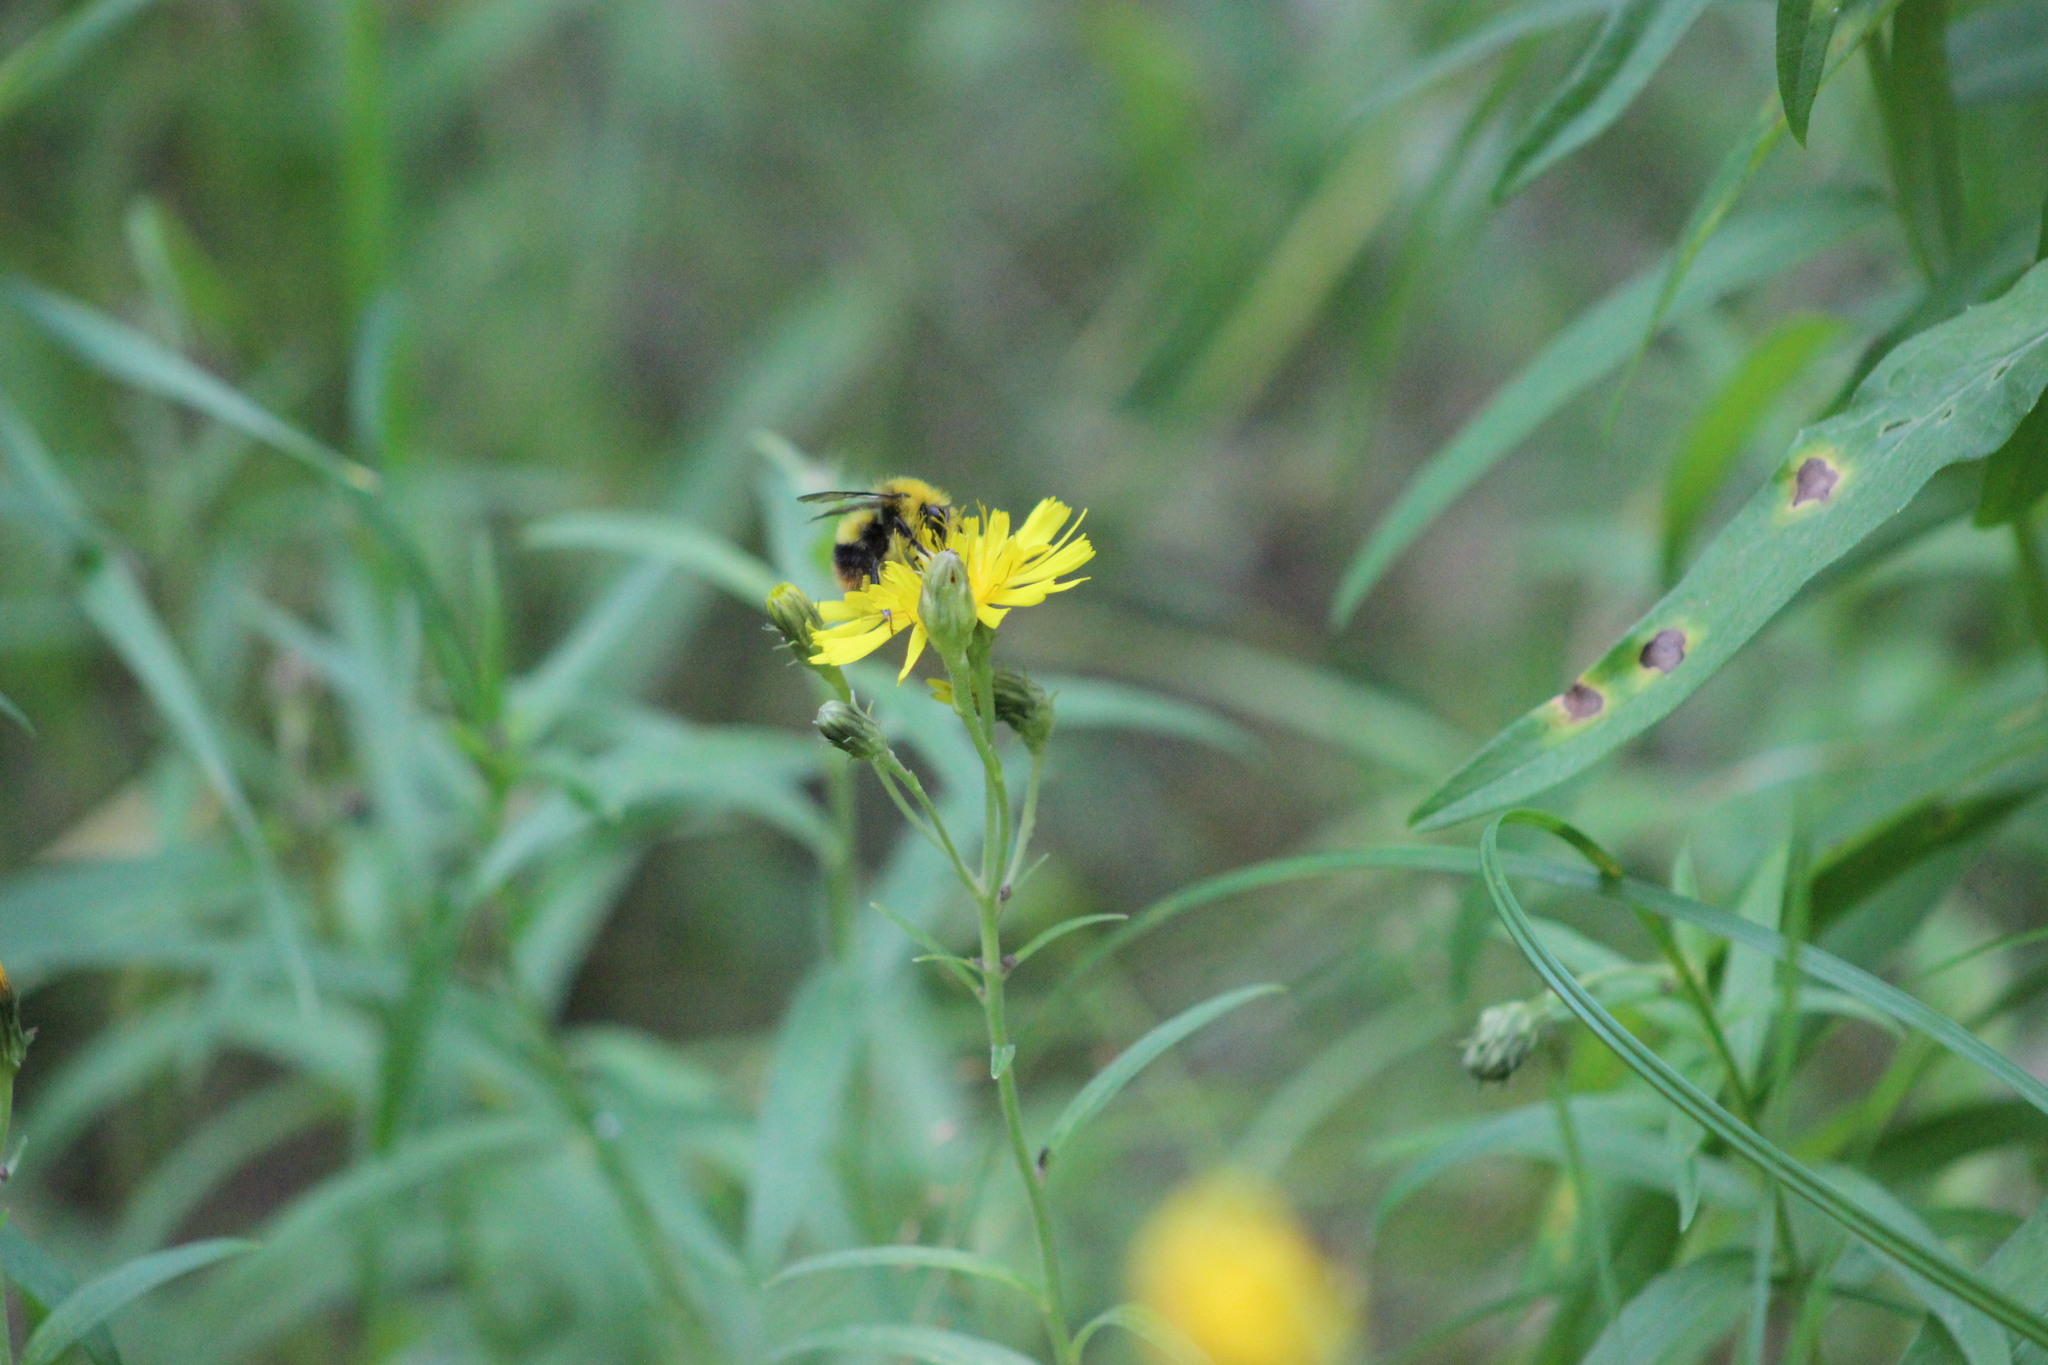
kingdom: Animalia
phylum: Arthropoda
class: Insecta
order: Hymenoptera
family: Apidae
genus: Bombus
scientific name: Bombus pratorum
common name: Early humble-bee
